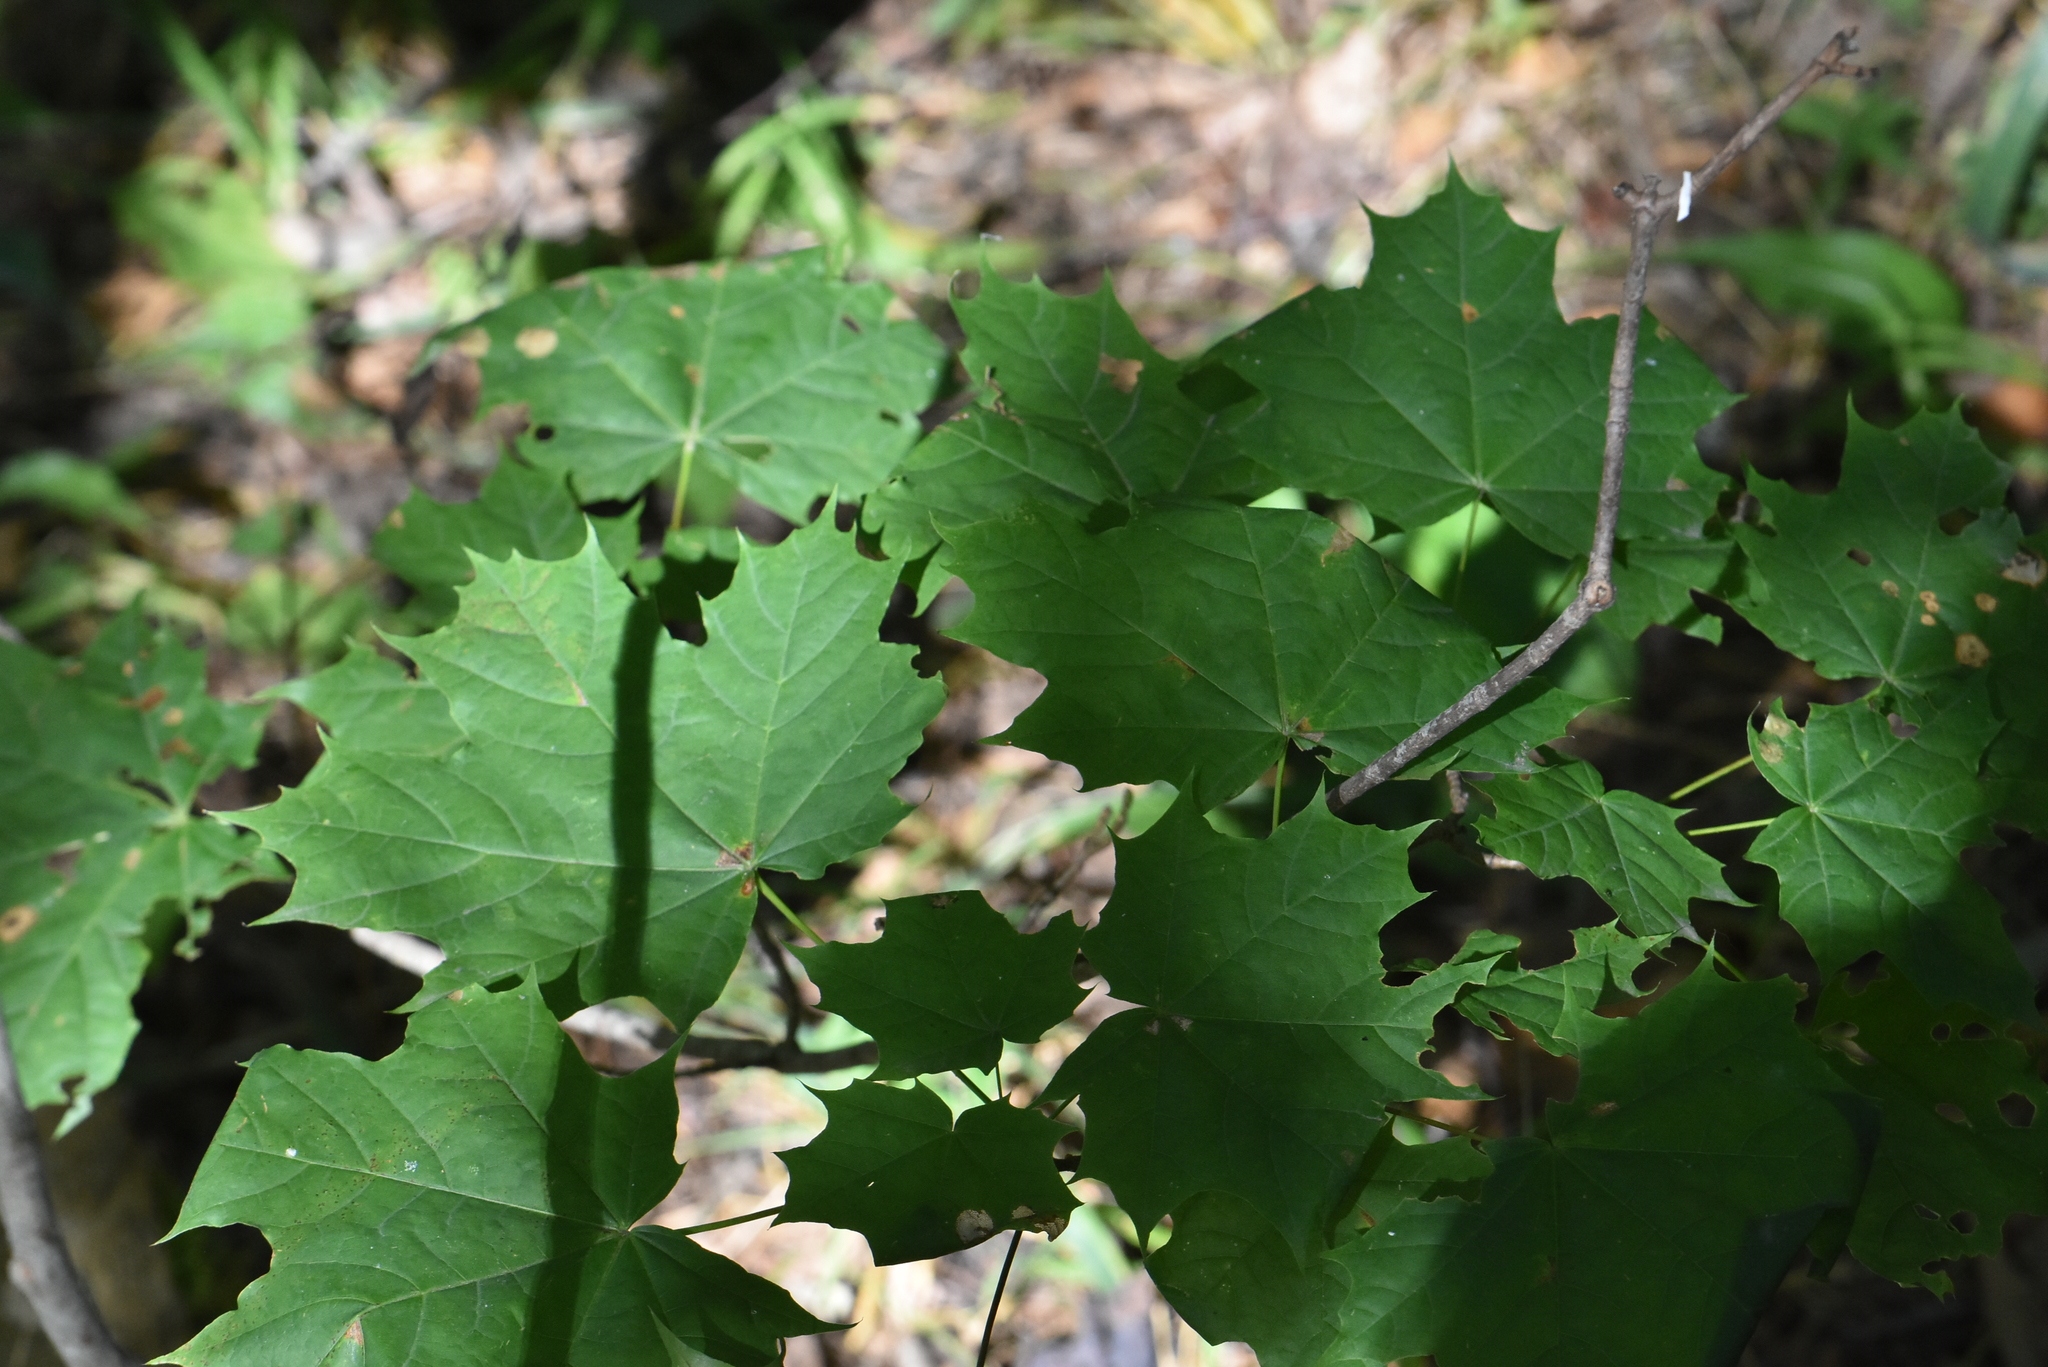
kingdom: Plantae
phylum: Tracheophyta
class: Magnoliopsida
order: Sapindales
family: Sapindaceae
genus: Acer
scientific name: Acer platanoides
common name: Norway maple
